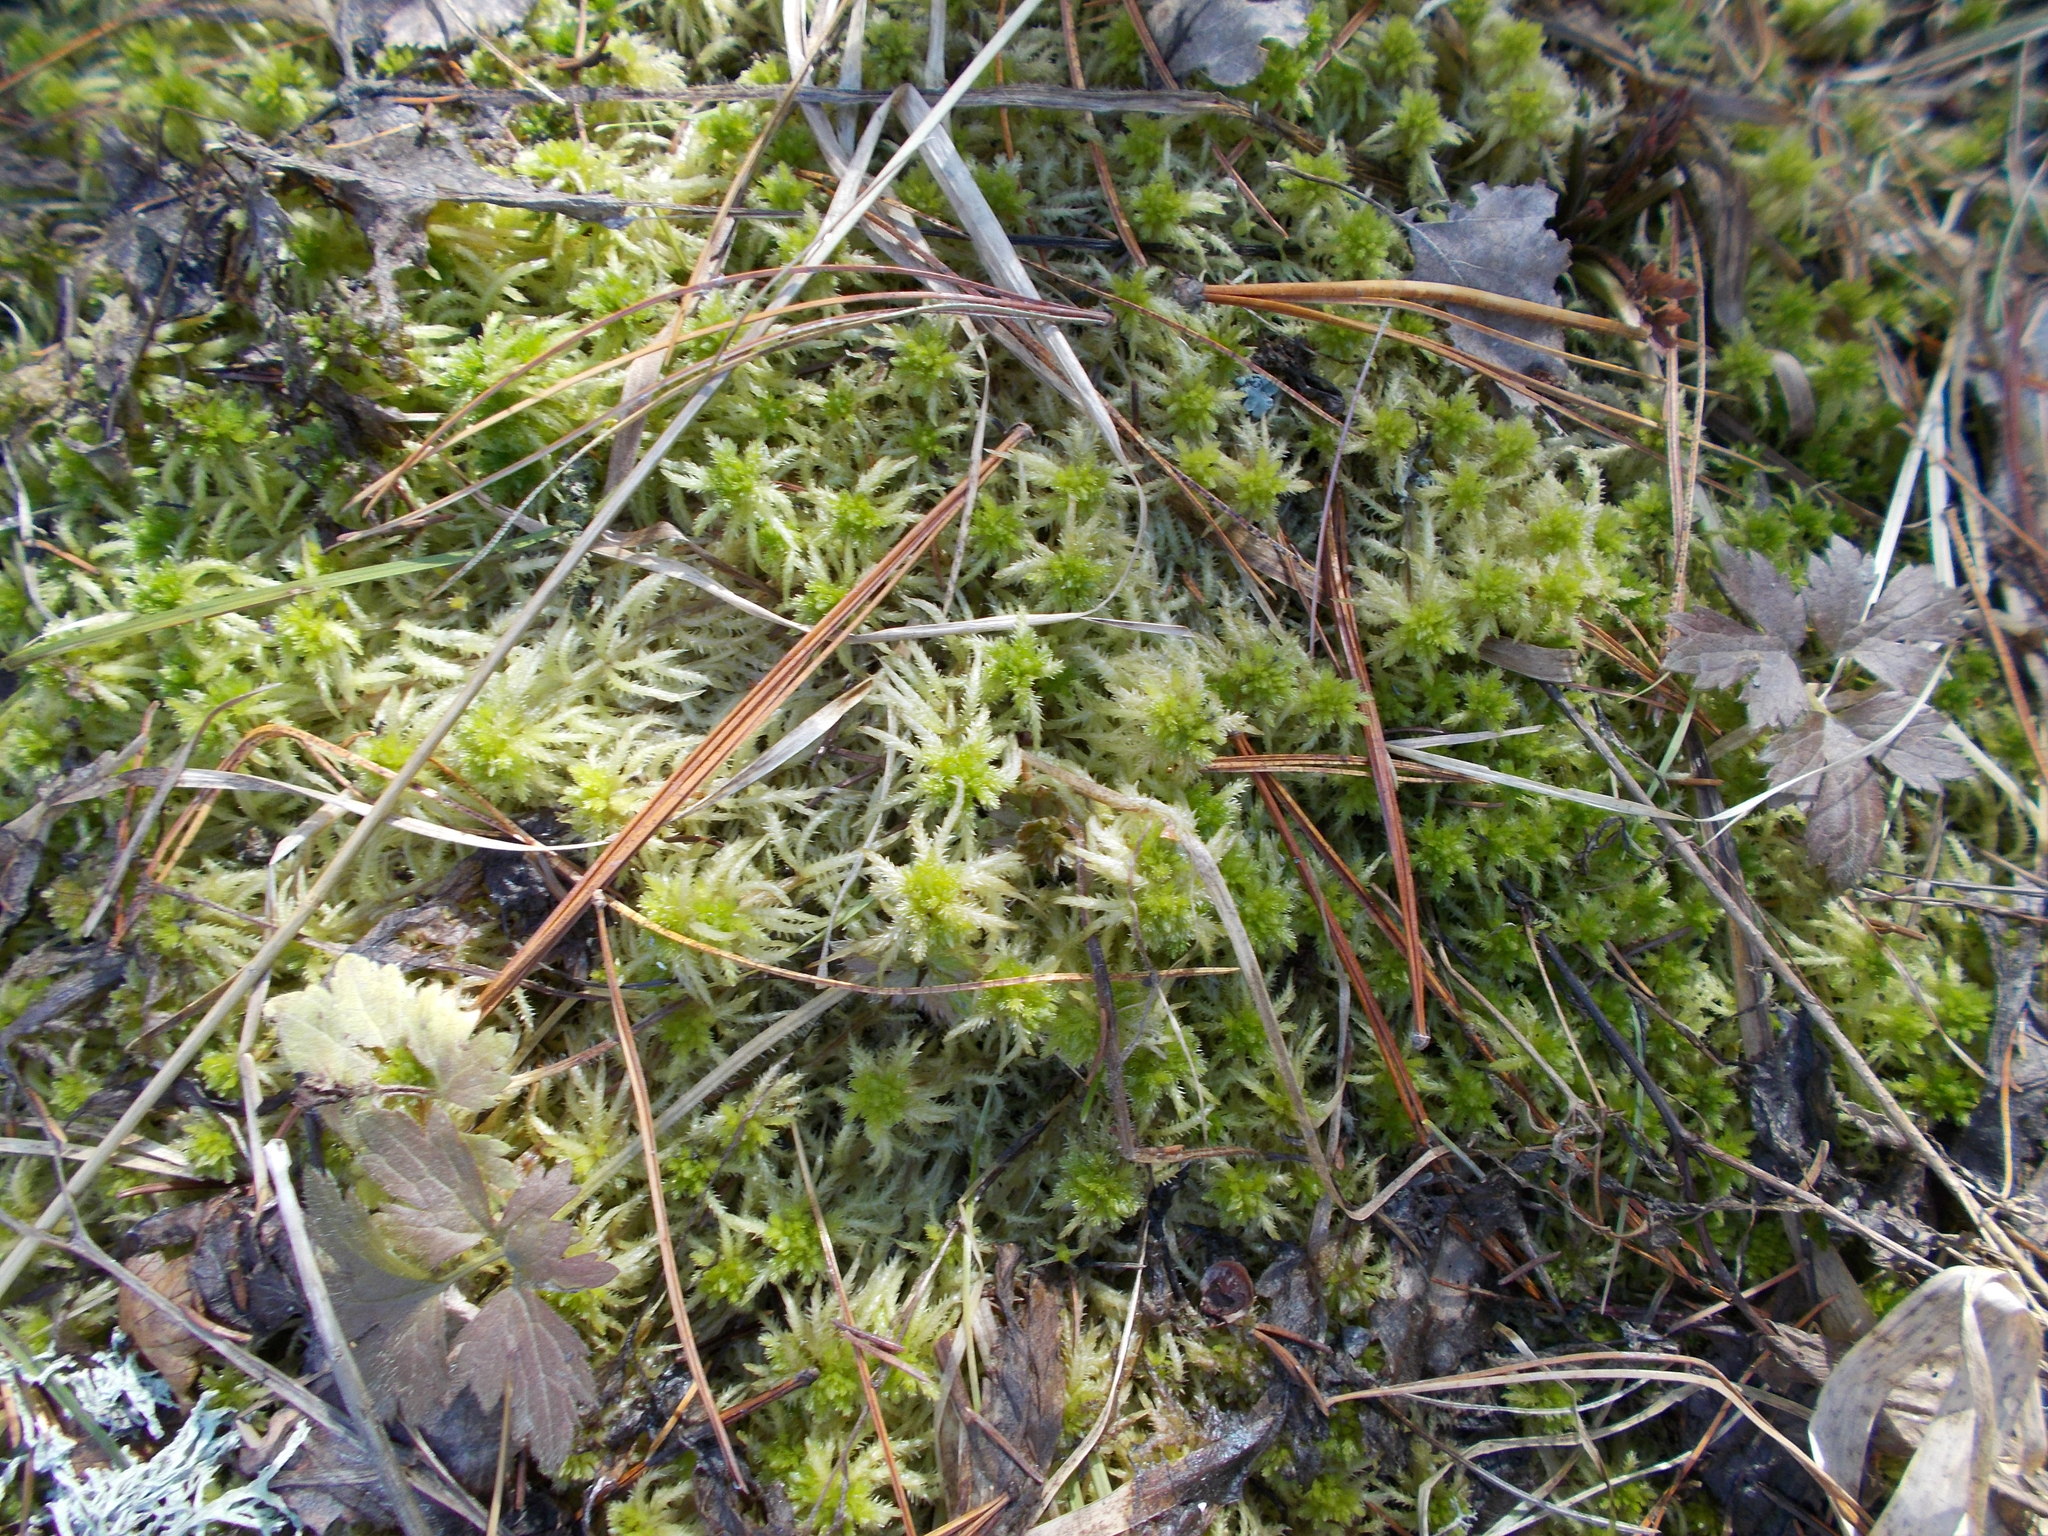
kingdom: Plantae
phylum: Bryophyta
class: Sphagnopsida
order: Sphagnales
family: Sphagnaceae
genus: Sphagnum
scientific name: Sphagnum squarrosum
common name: Shaggy peat moss
